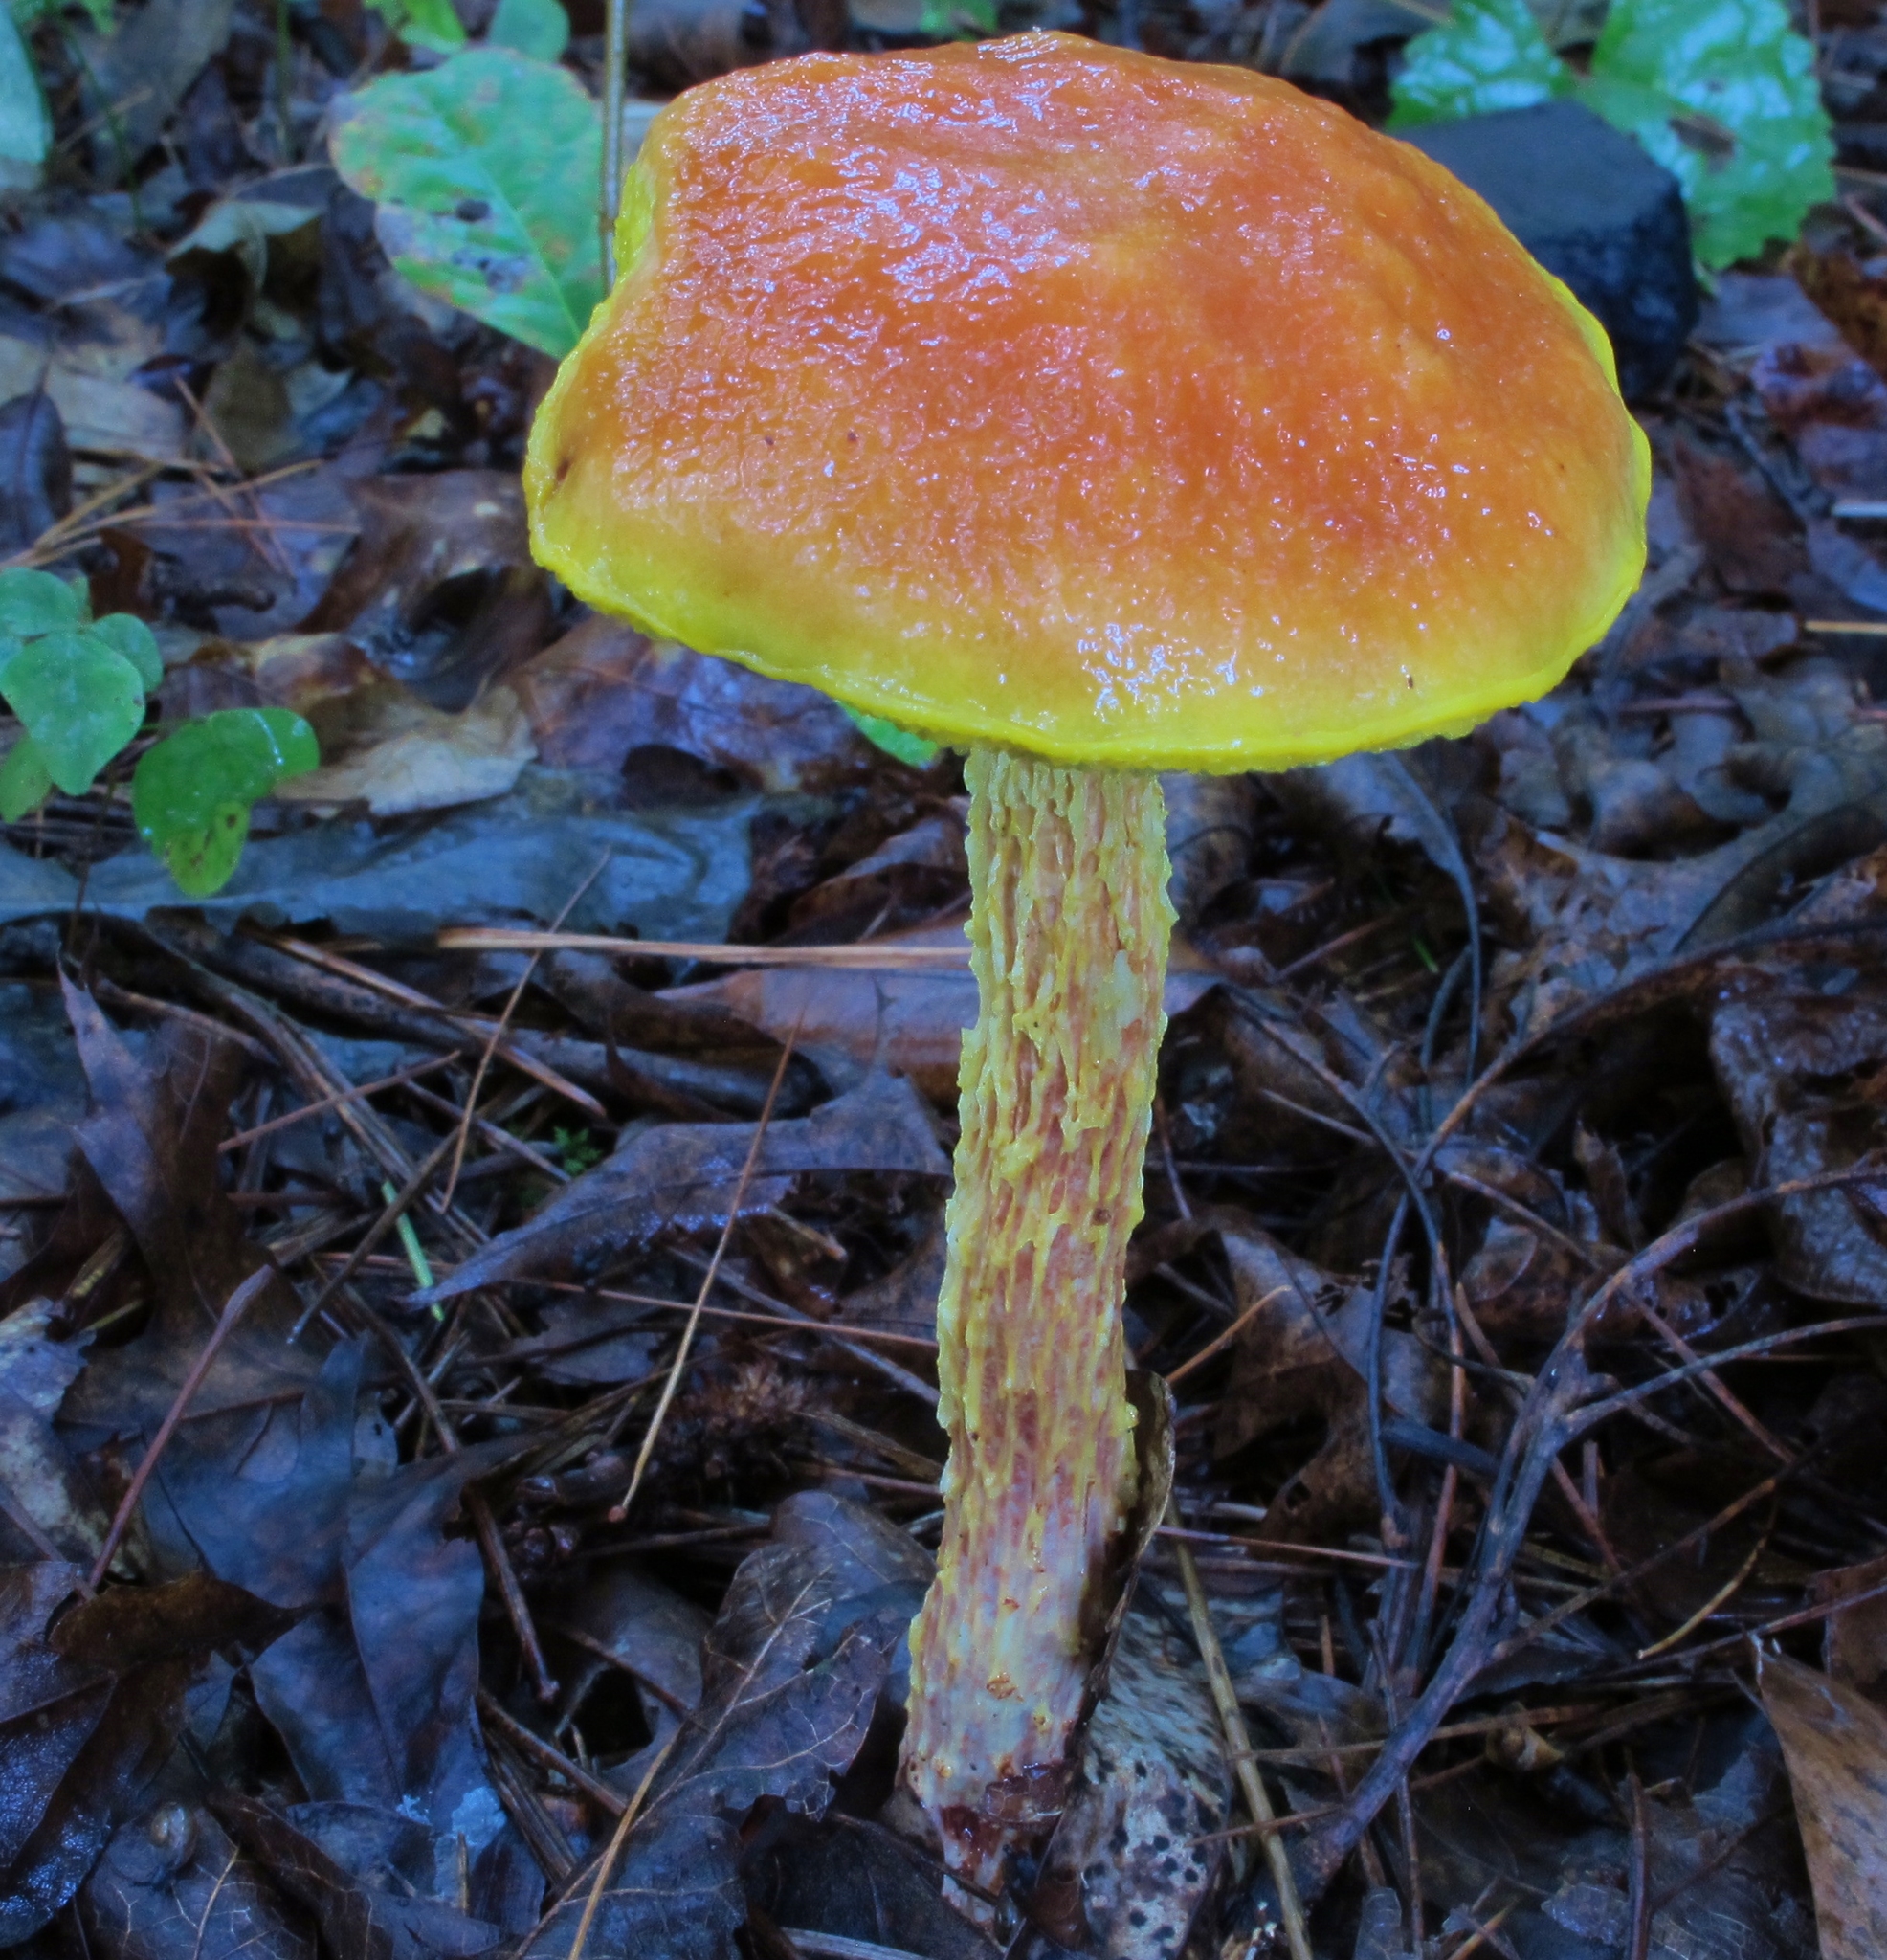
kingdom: Fungi
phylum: Basidiomycota
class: Agaricomycetes
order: Boletales
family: Boletaceae
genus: Aureoboletus
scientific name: Aureoboletus betula
